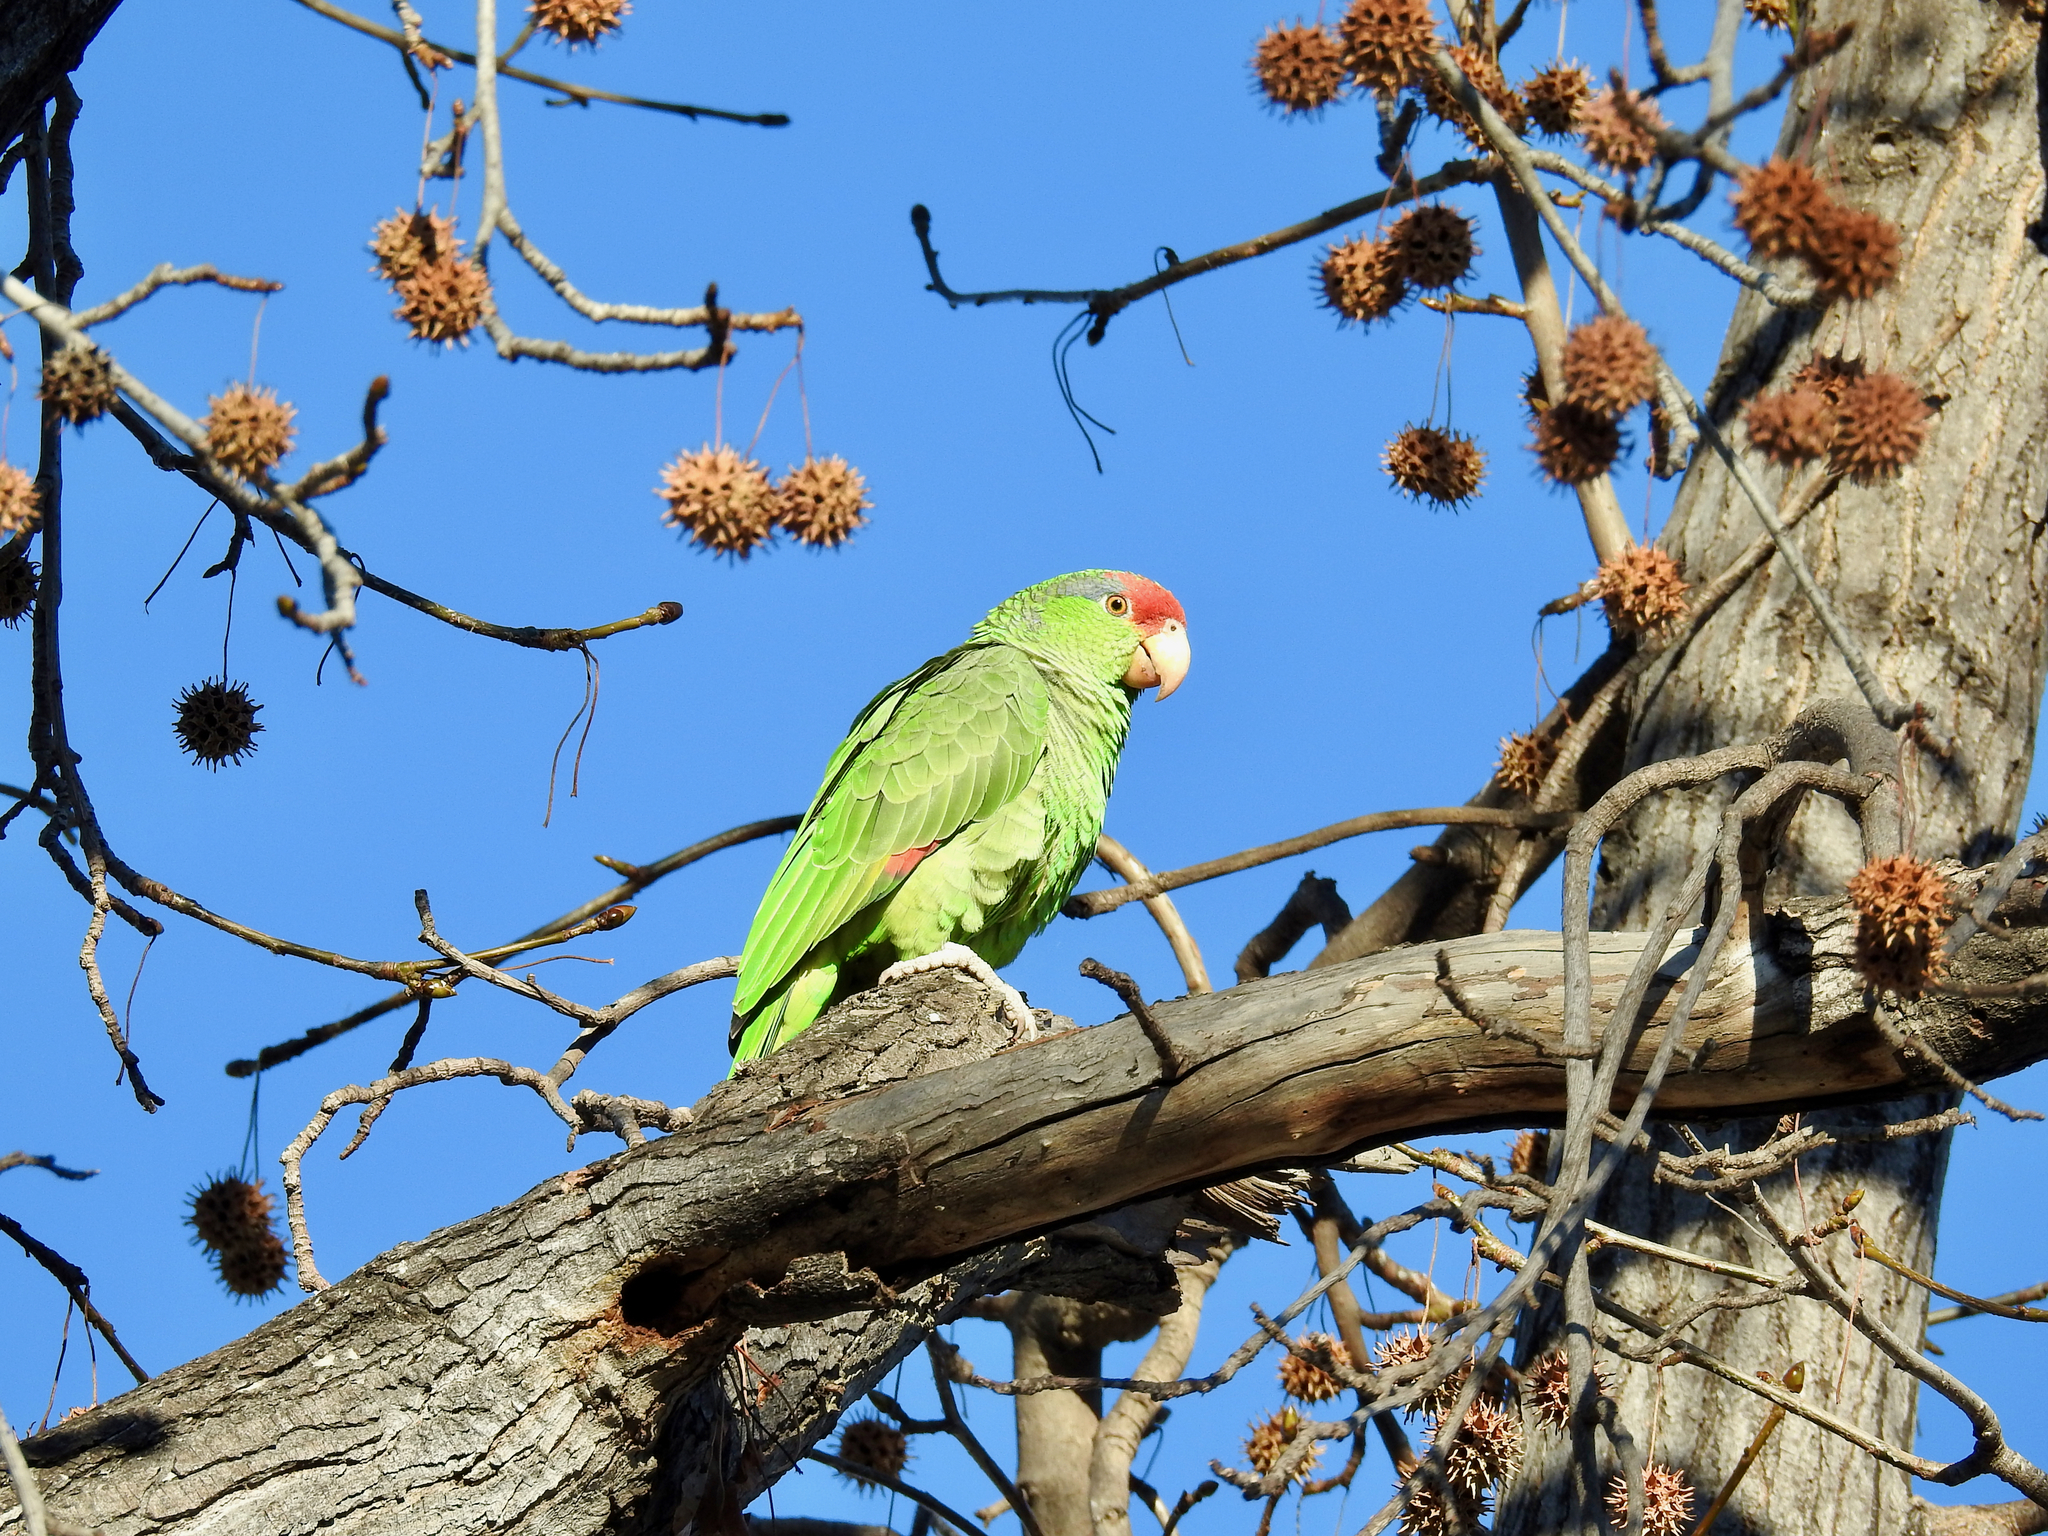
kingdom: Animalia
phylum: Chordata
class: Aves
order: Psittaciformes
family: Psittacidae
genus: Amazona
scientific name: Amazona viridigenalis
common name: Red-crowned amazon
